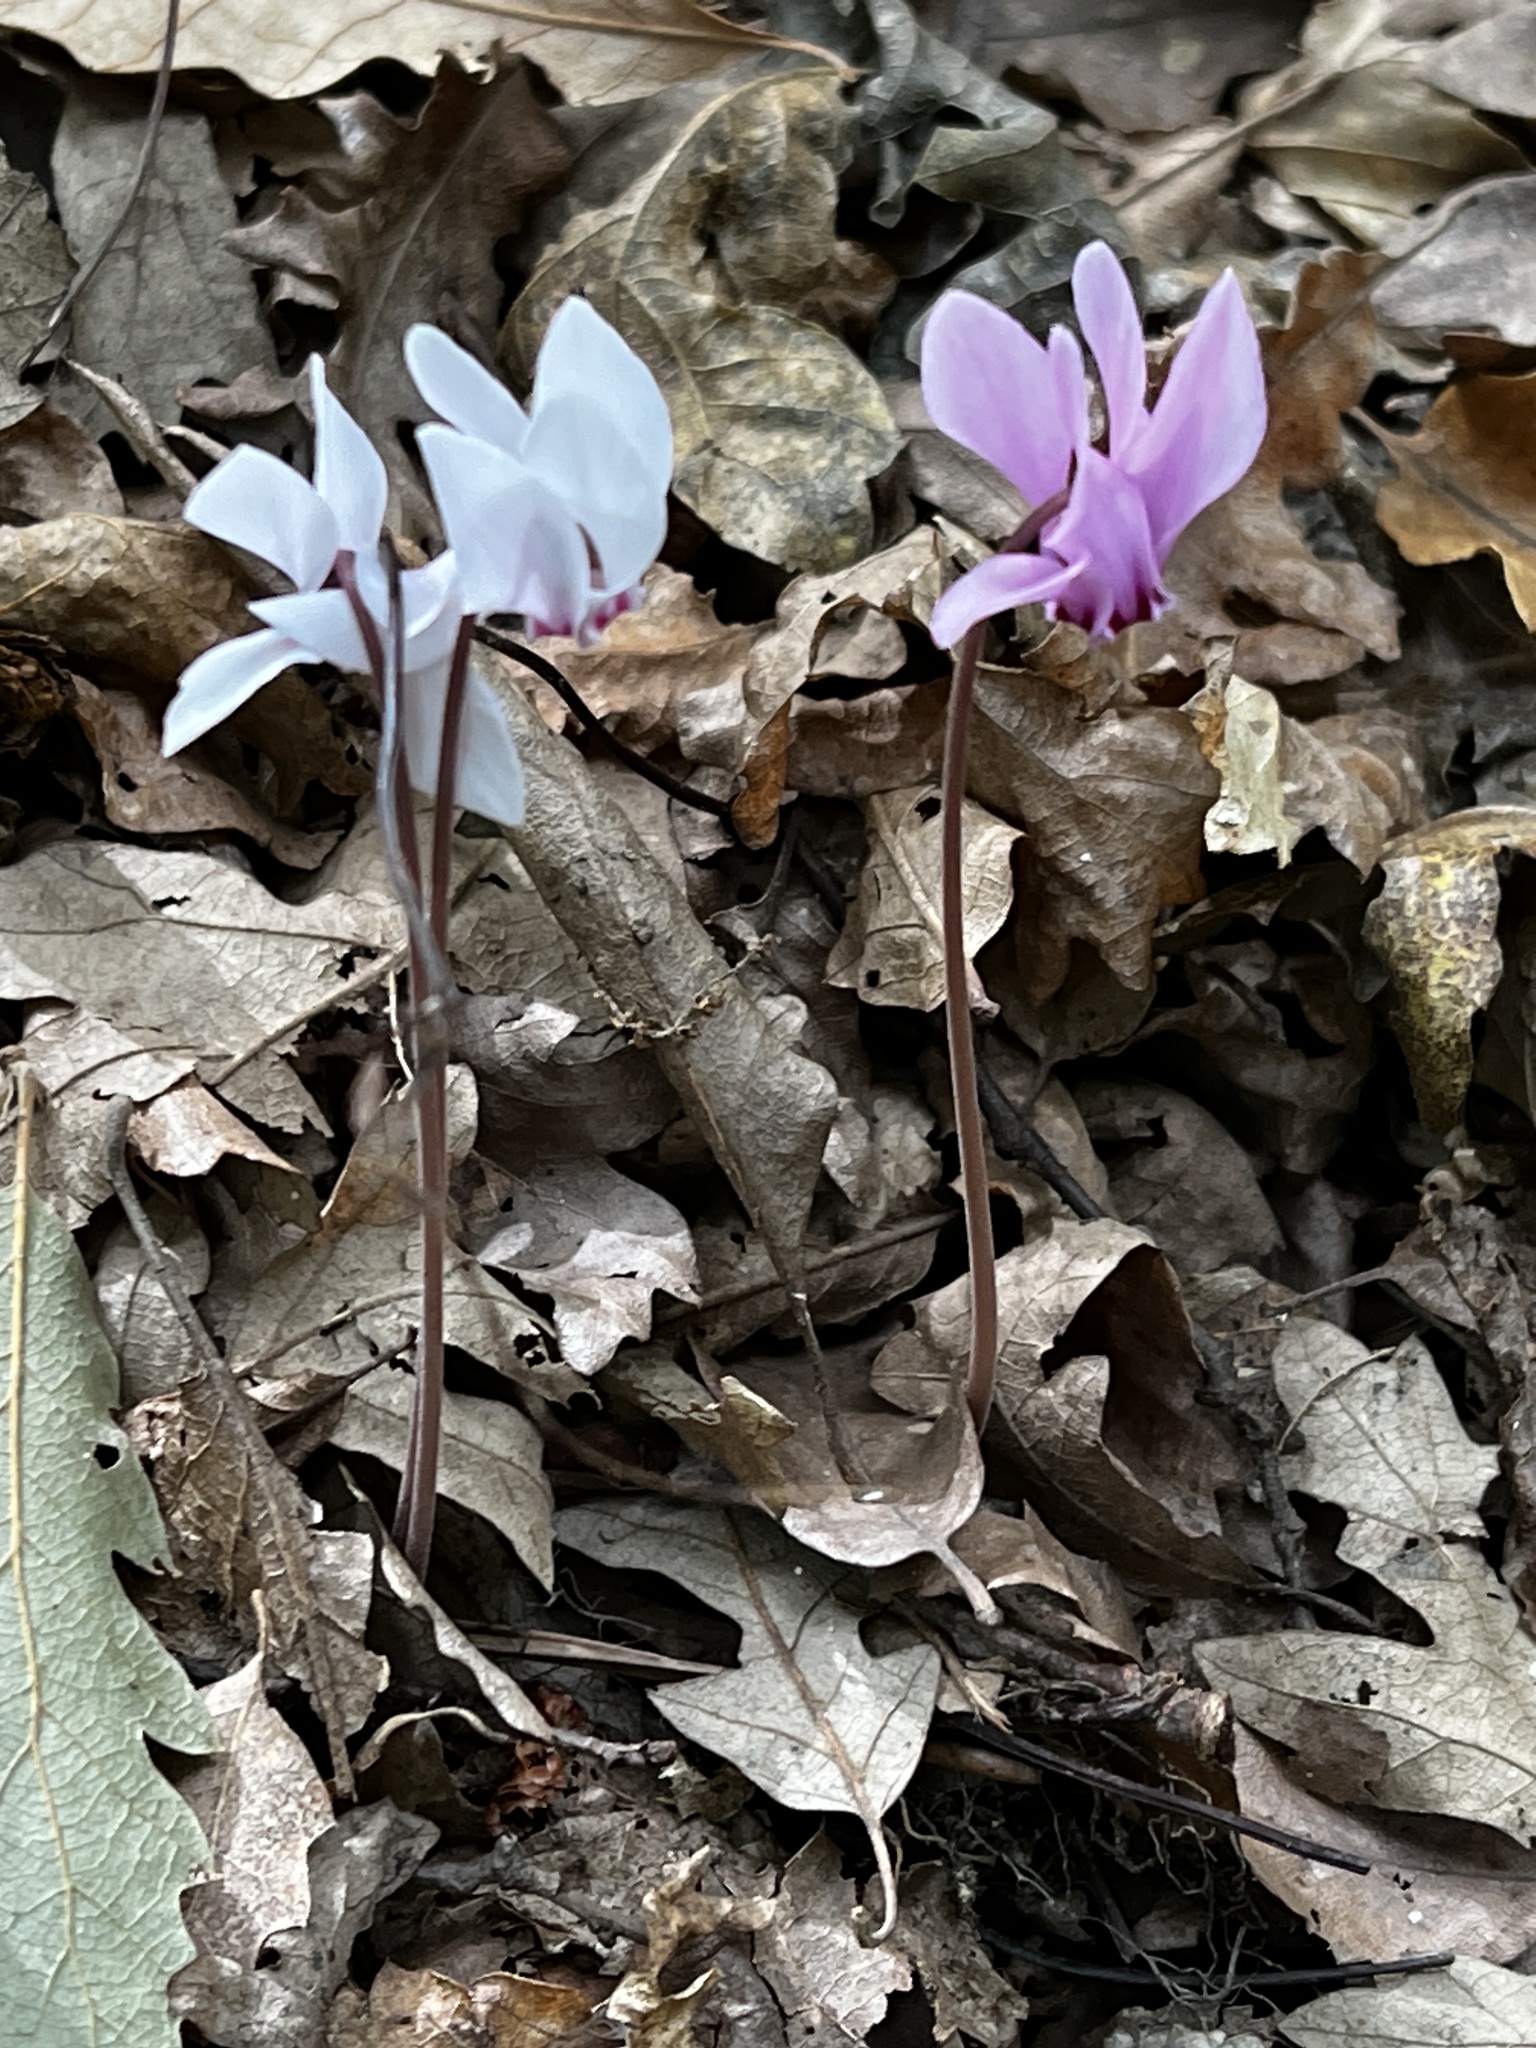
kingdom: Plantae
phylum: Tracheophyta
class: Magnoliopsida
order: Ericales
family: Primulaceae
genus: Cyclamen
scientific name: Cyclamen hederifolium
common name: Sowbread
